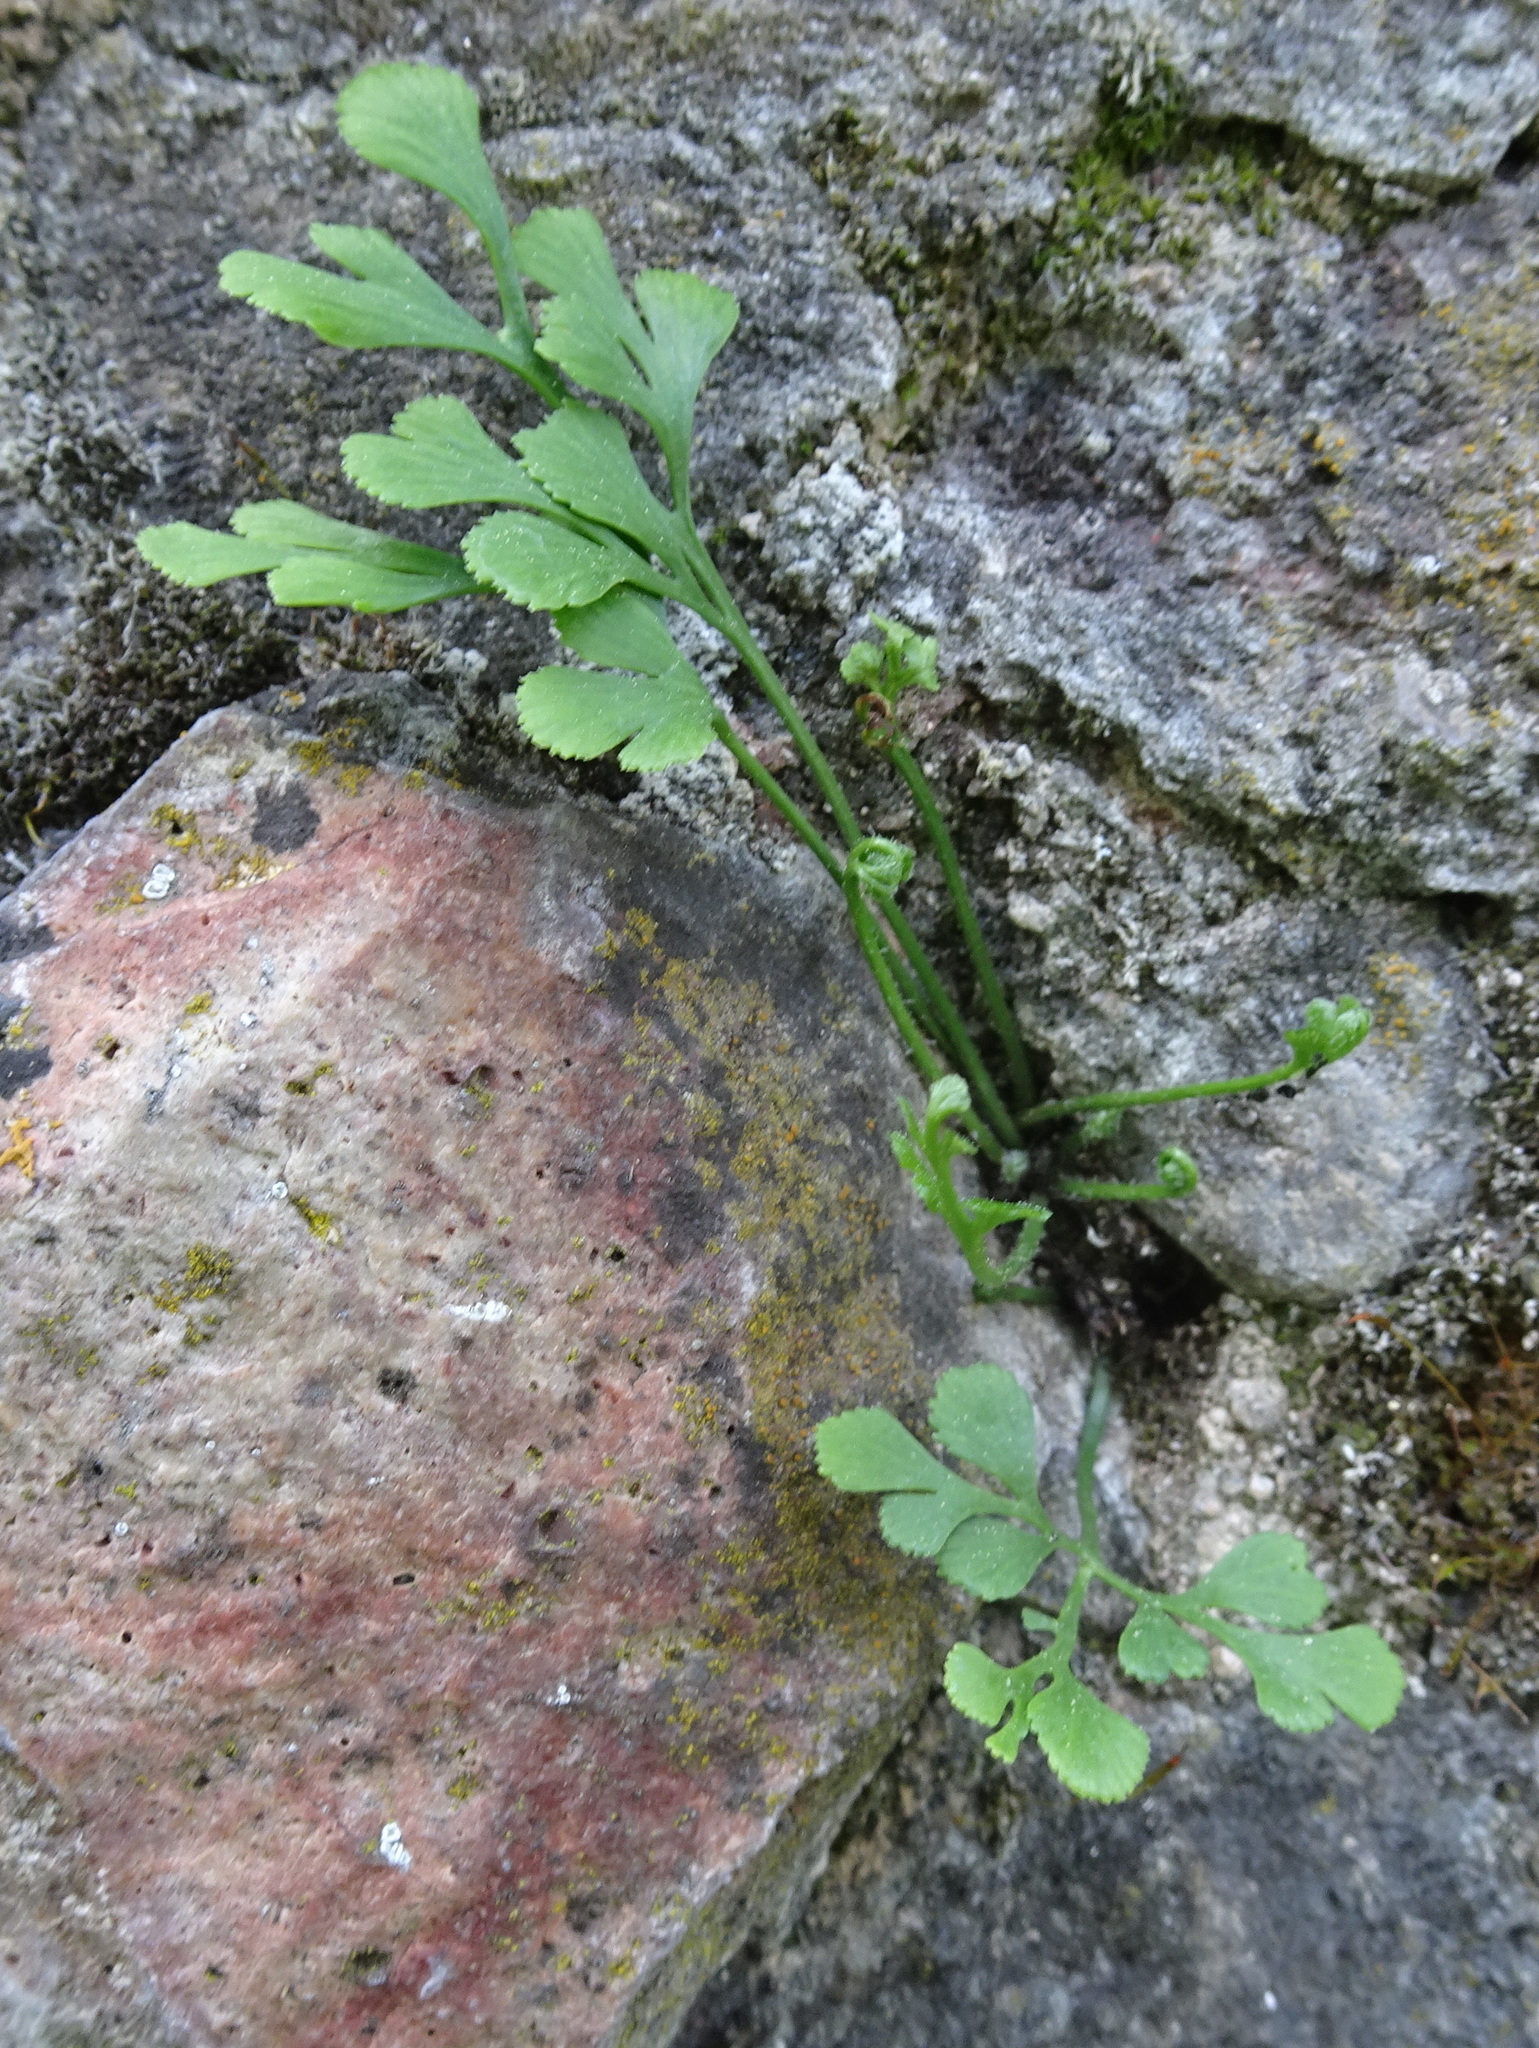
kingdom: Plantae
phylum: Tracheophyta
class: Polypodiopsida
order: Polypodiales
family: Aspleniaceae
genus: Asplenium
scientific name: Asplenium ruta-muraria
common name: Wall-rue
